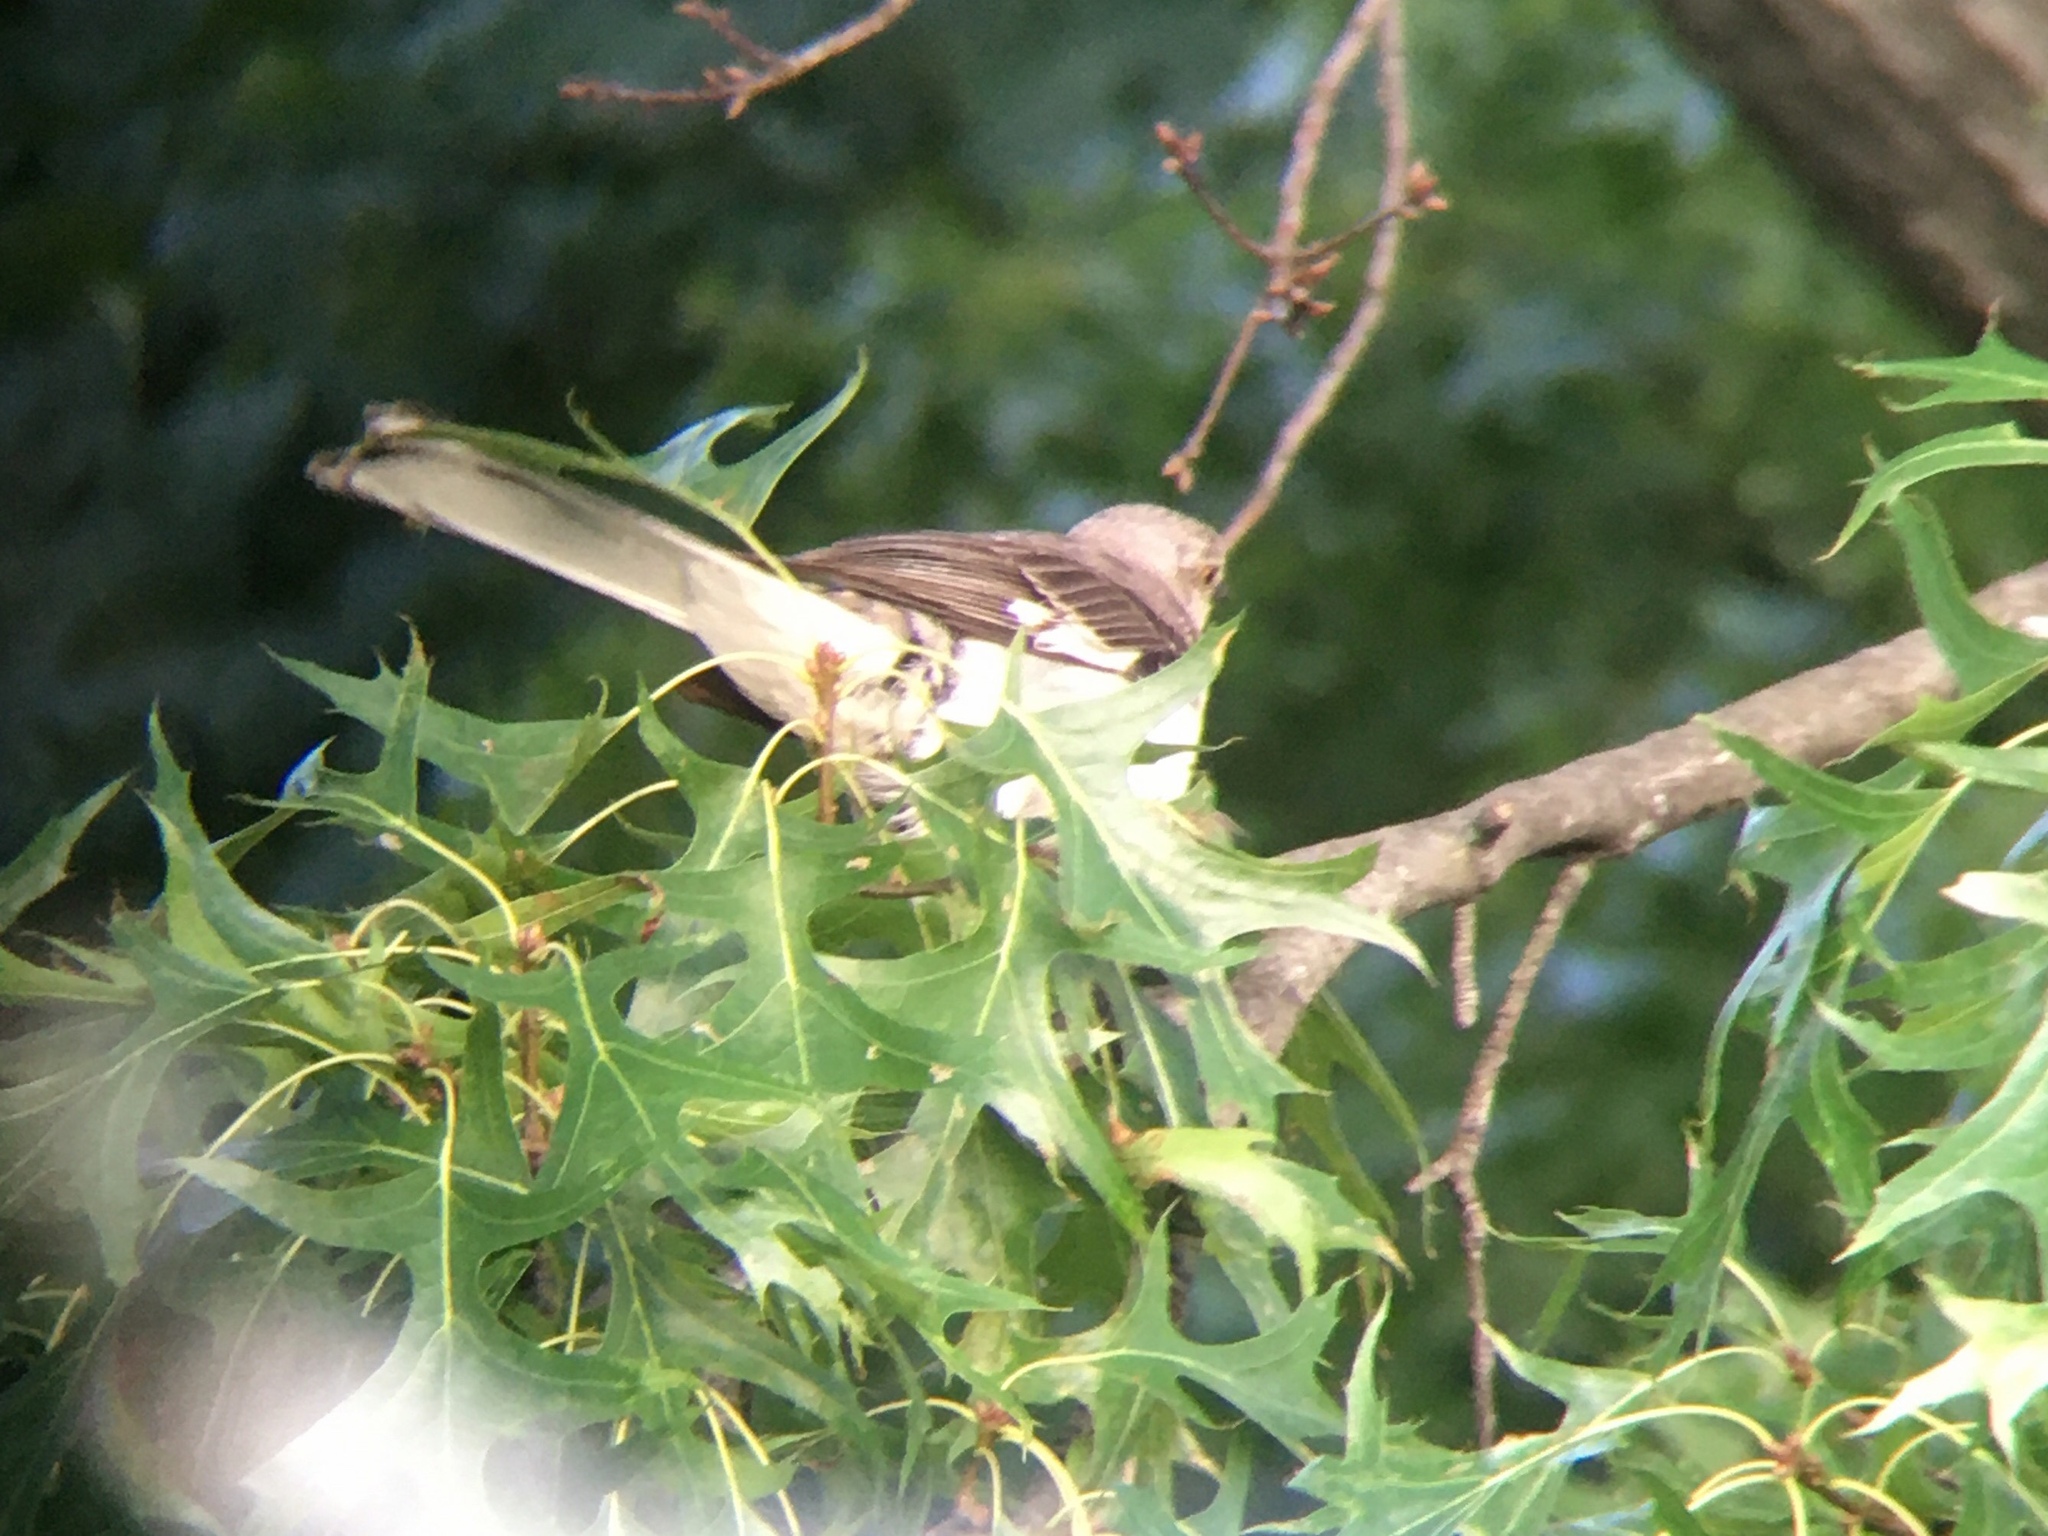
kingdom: Animalia
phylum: Chordata
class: Aves
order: Passeriformes
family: Mimidae
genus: Mimus
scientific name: Mimus polyglottos
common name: Northern mockingbird
